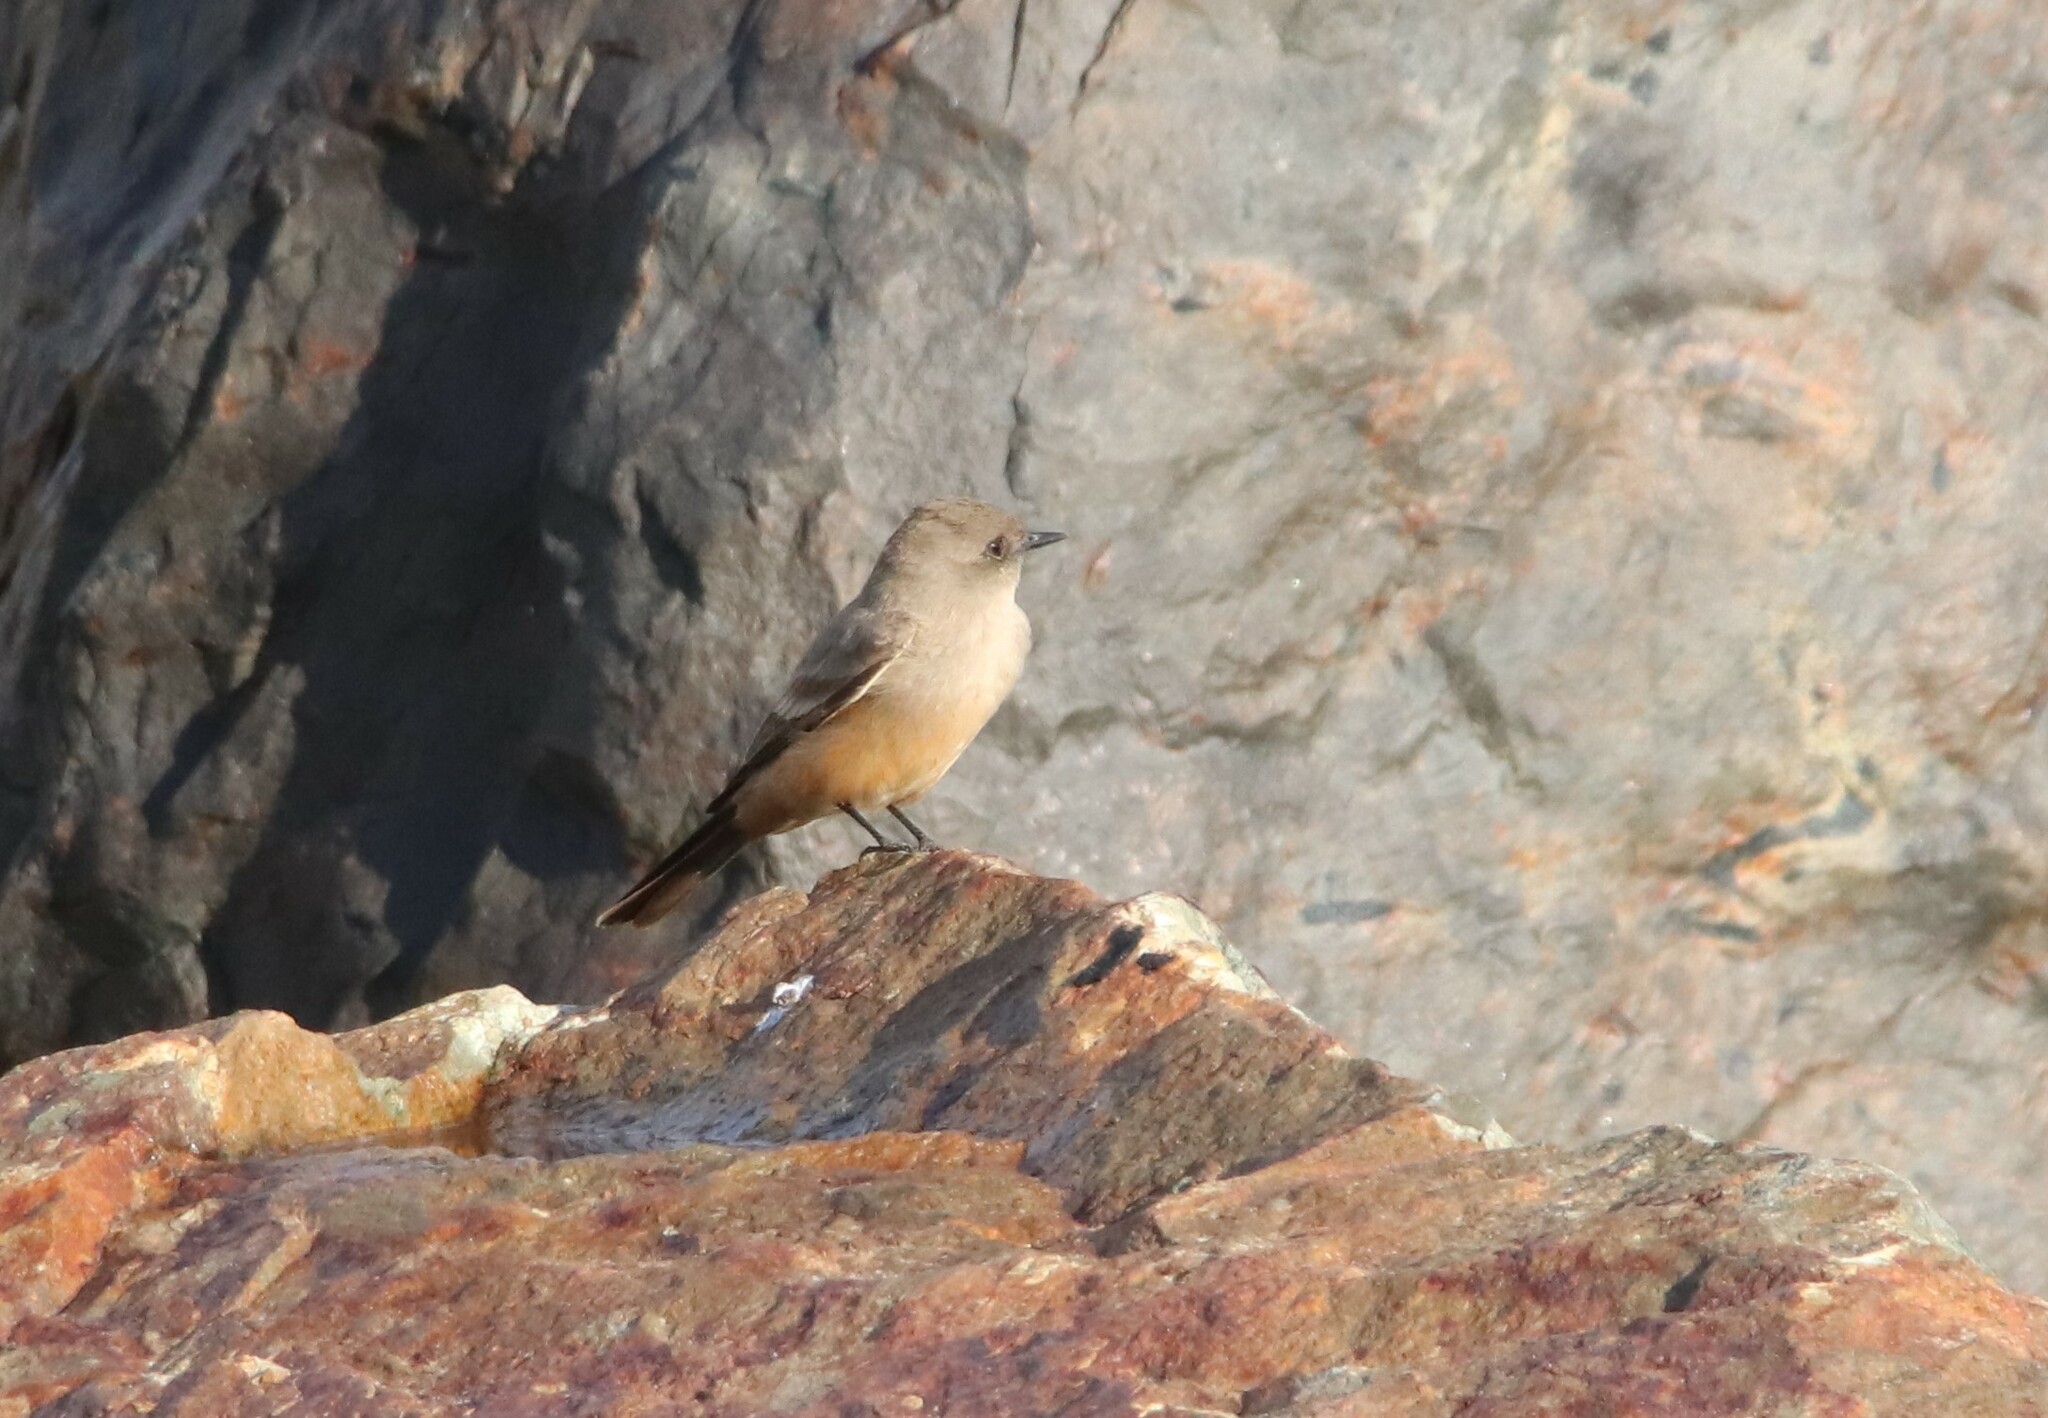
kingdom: Animalia
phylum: Chordata
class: Aves
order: Passeriformes
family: Tyrannidae
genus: Sayornis
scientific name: Sayornis saya
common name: Say's phoebe
